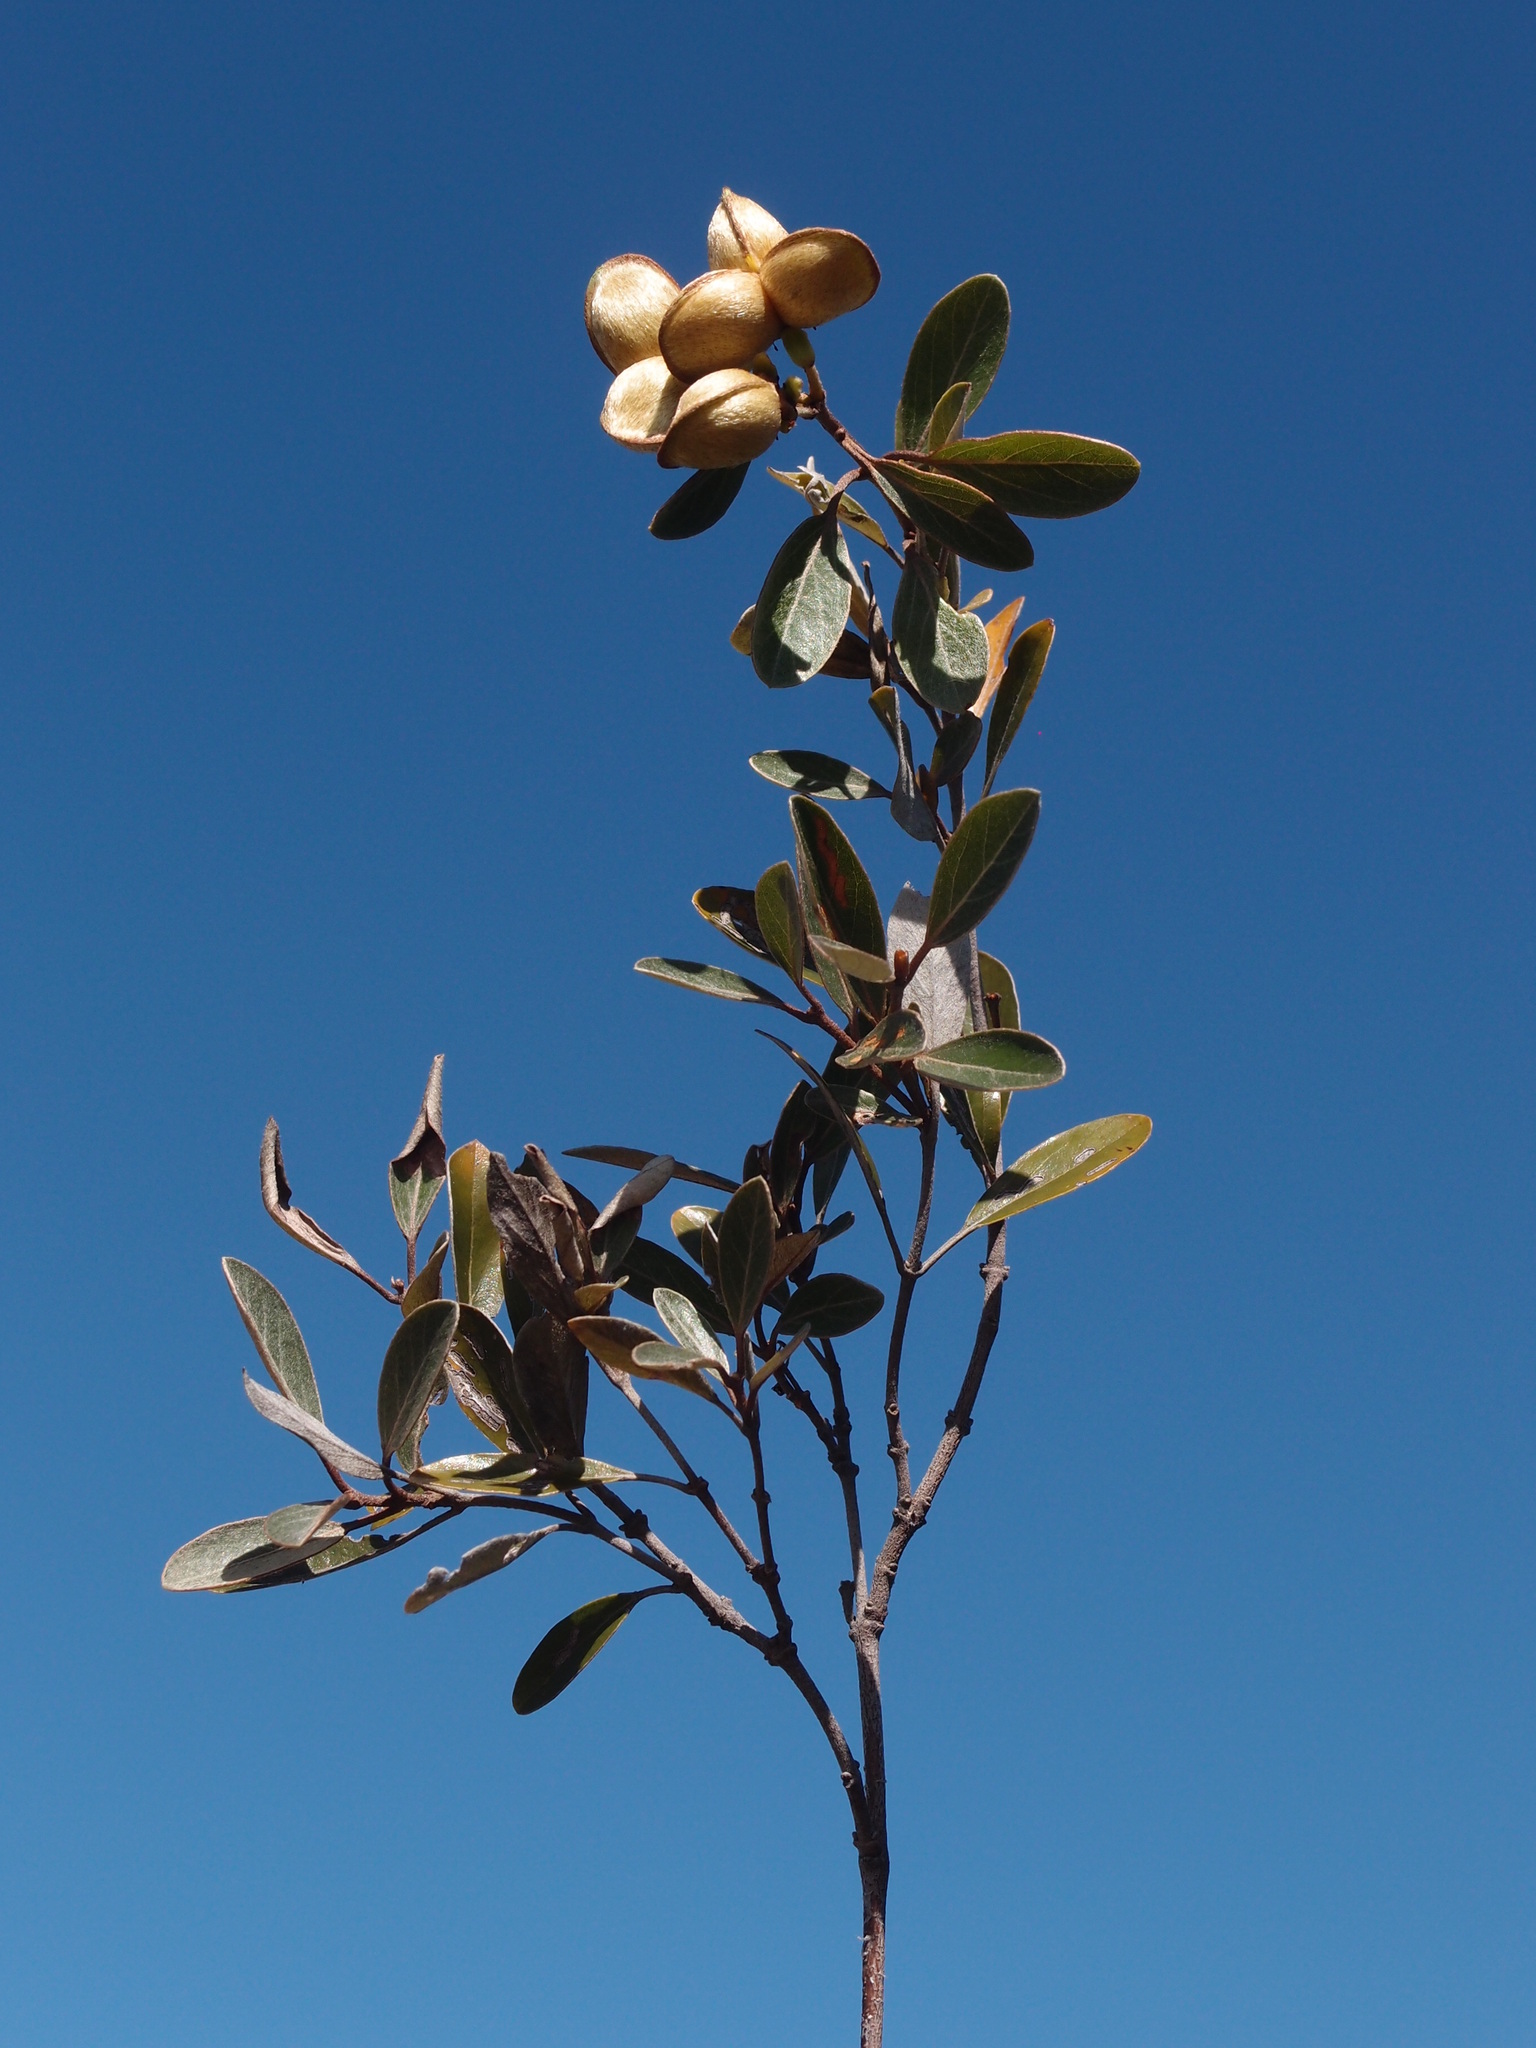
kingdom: Plantae
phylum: Tracheophyta
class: Magnoliopsida
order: Malpighiales
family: Malpighiaceae
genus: Philgamia
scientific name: Philgamia hibbertioides
